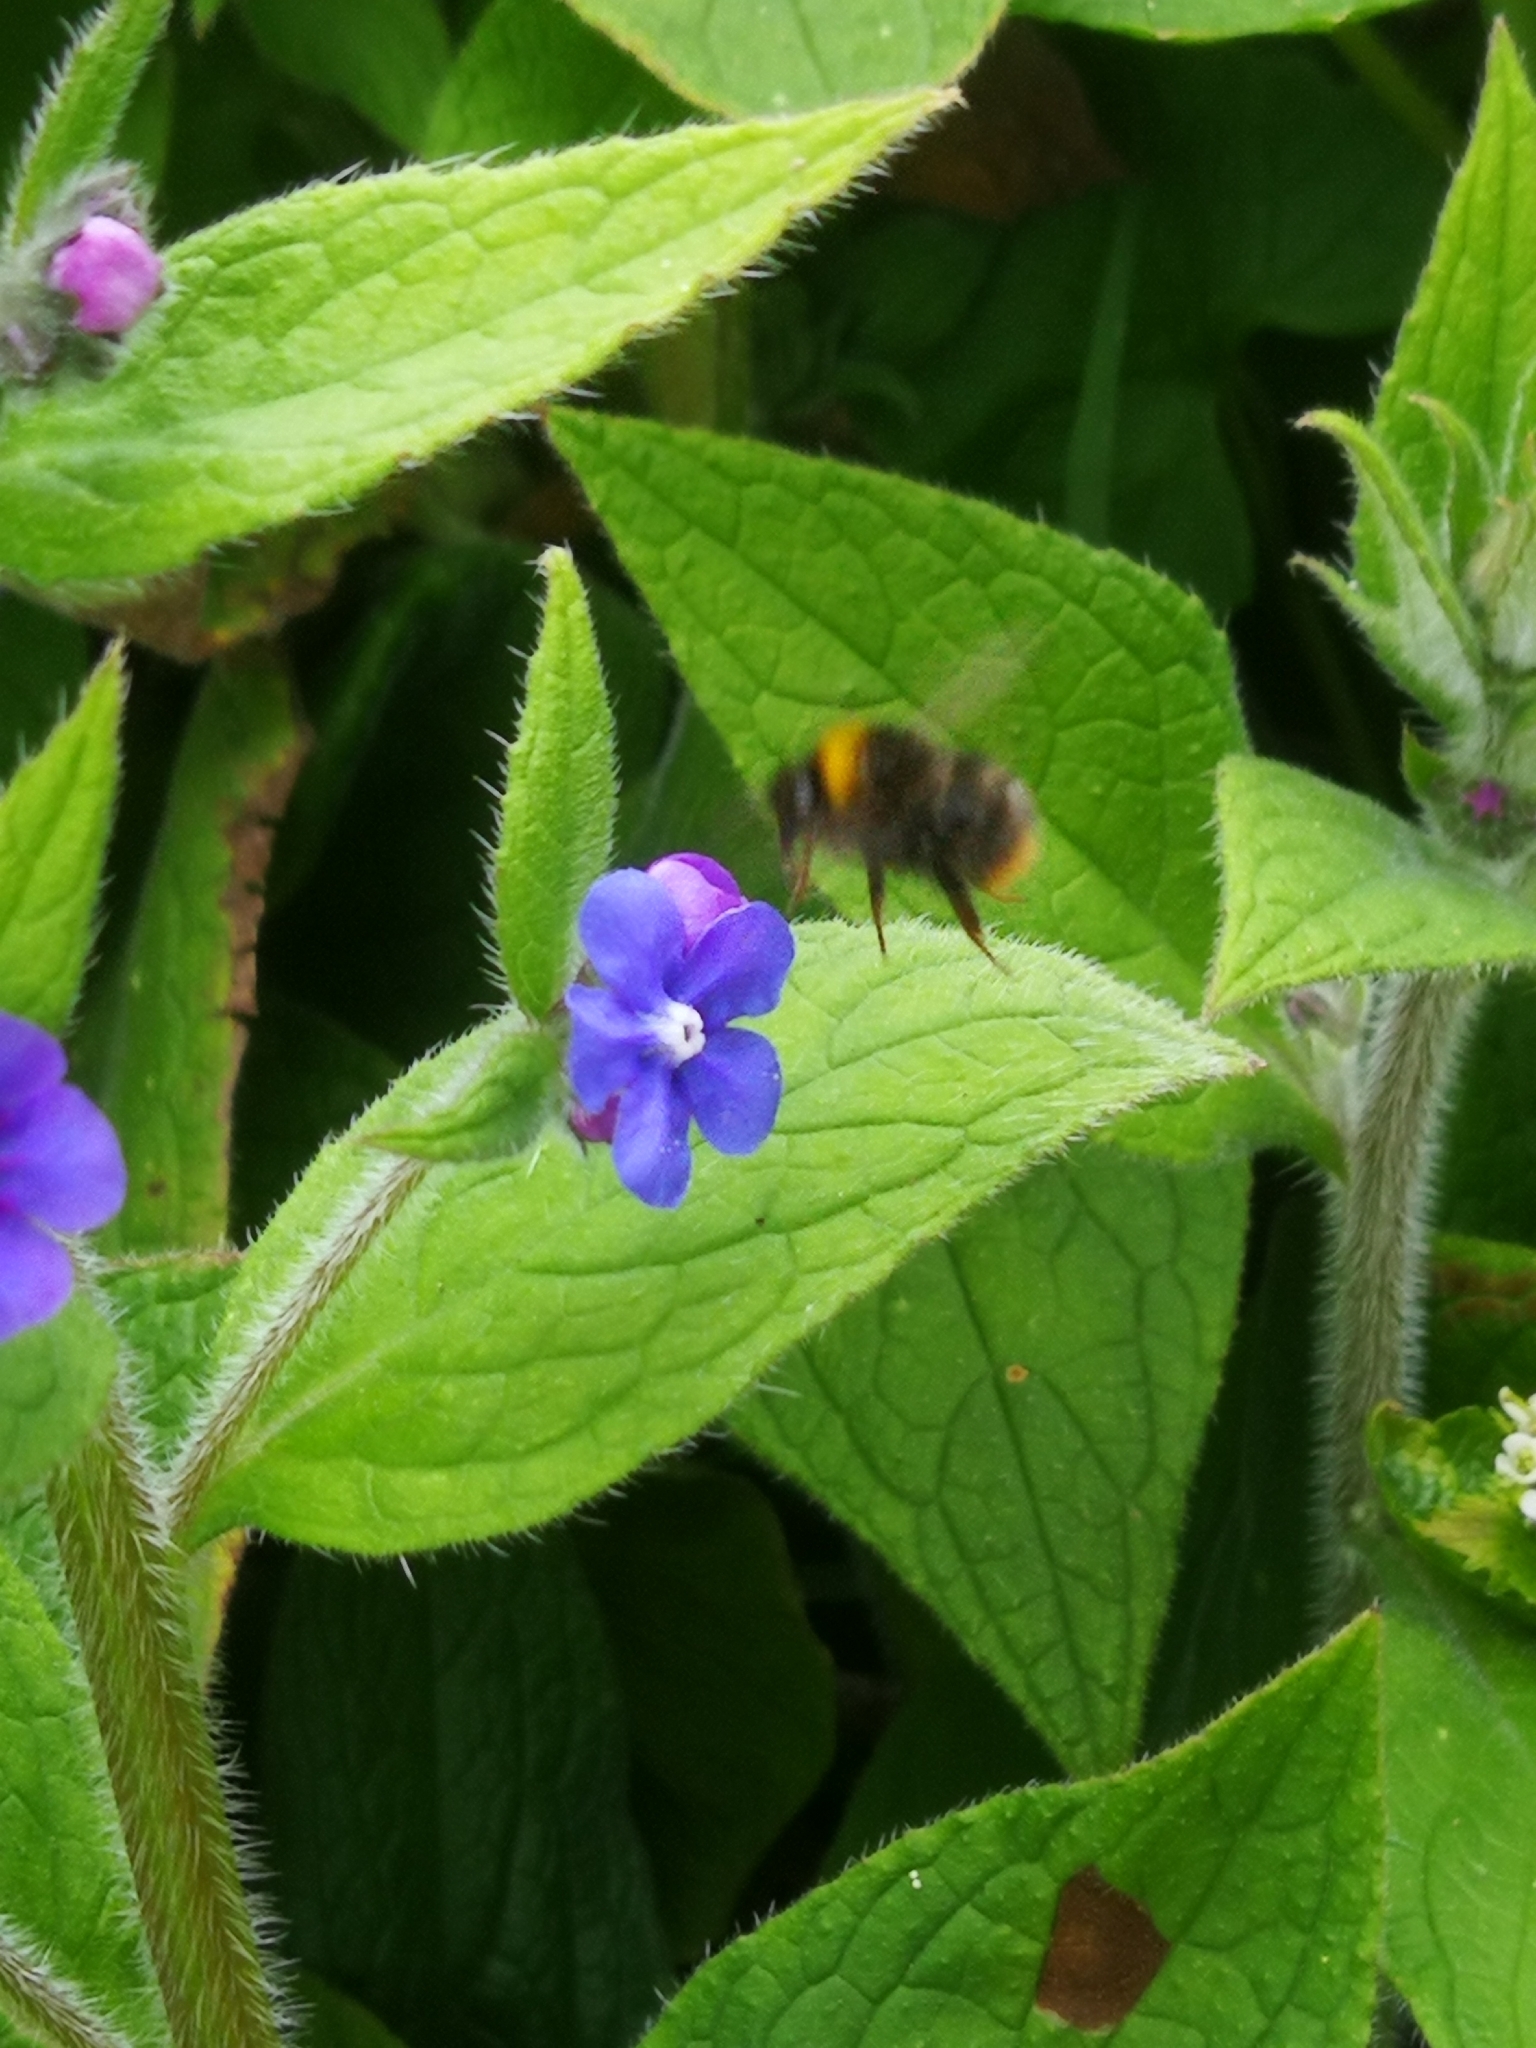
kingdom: Animalia
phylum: Arthropoda
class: Insecta
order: Hymenoptera
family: Apidae
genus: Bombus
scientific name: Bombus pratorum
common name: Early humble-bee
